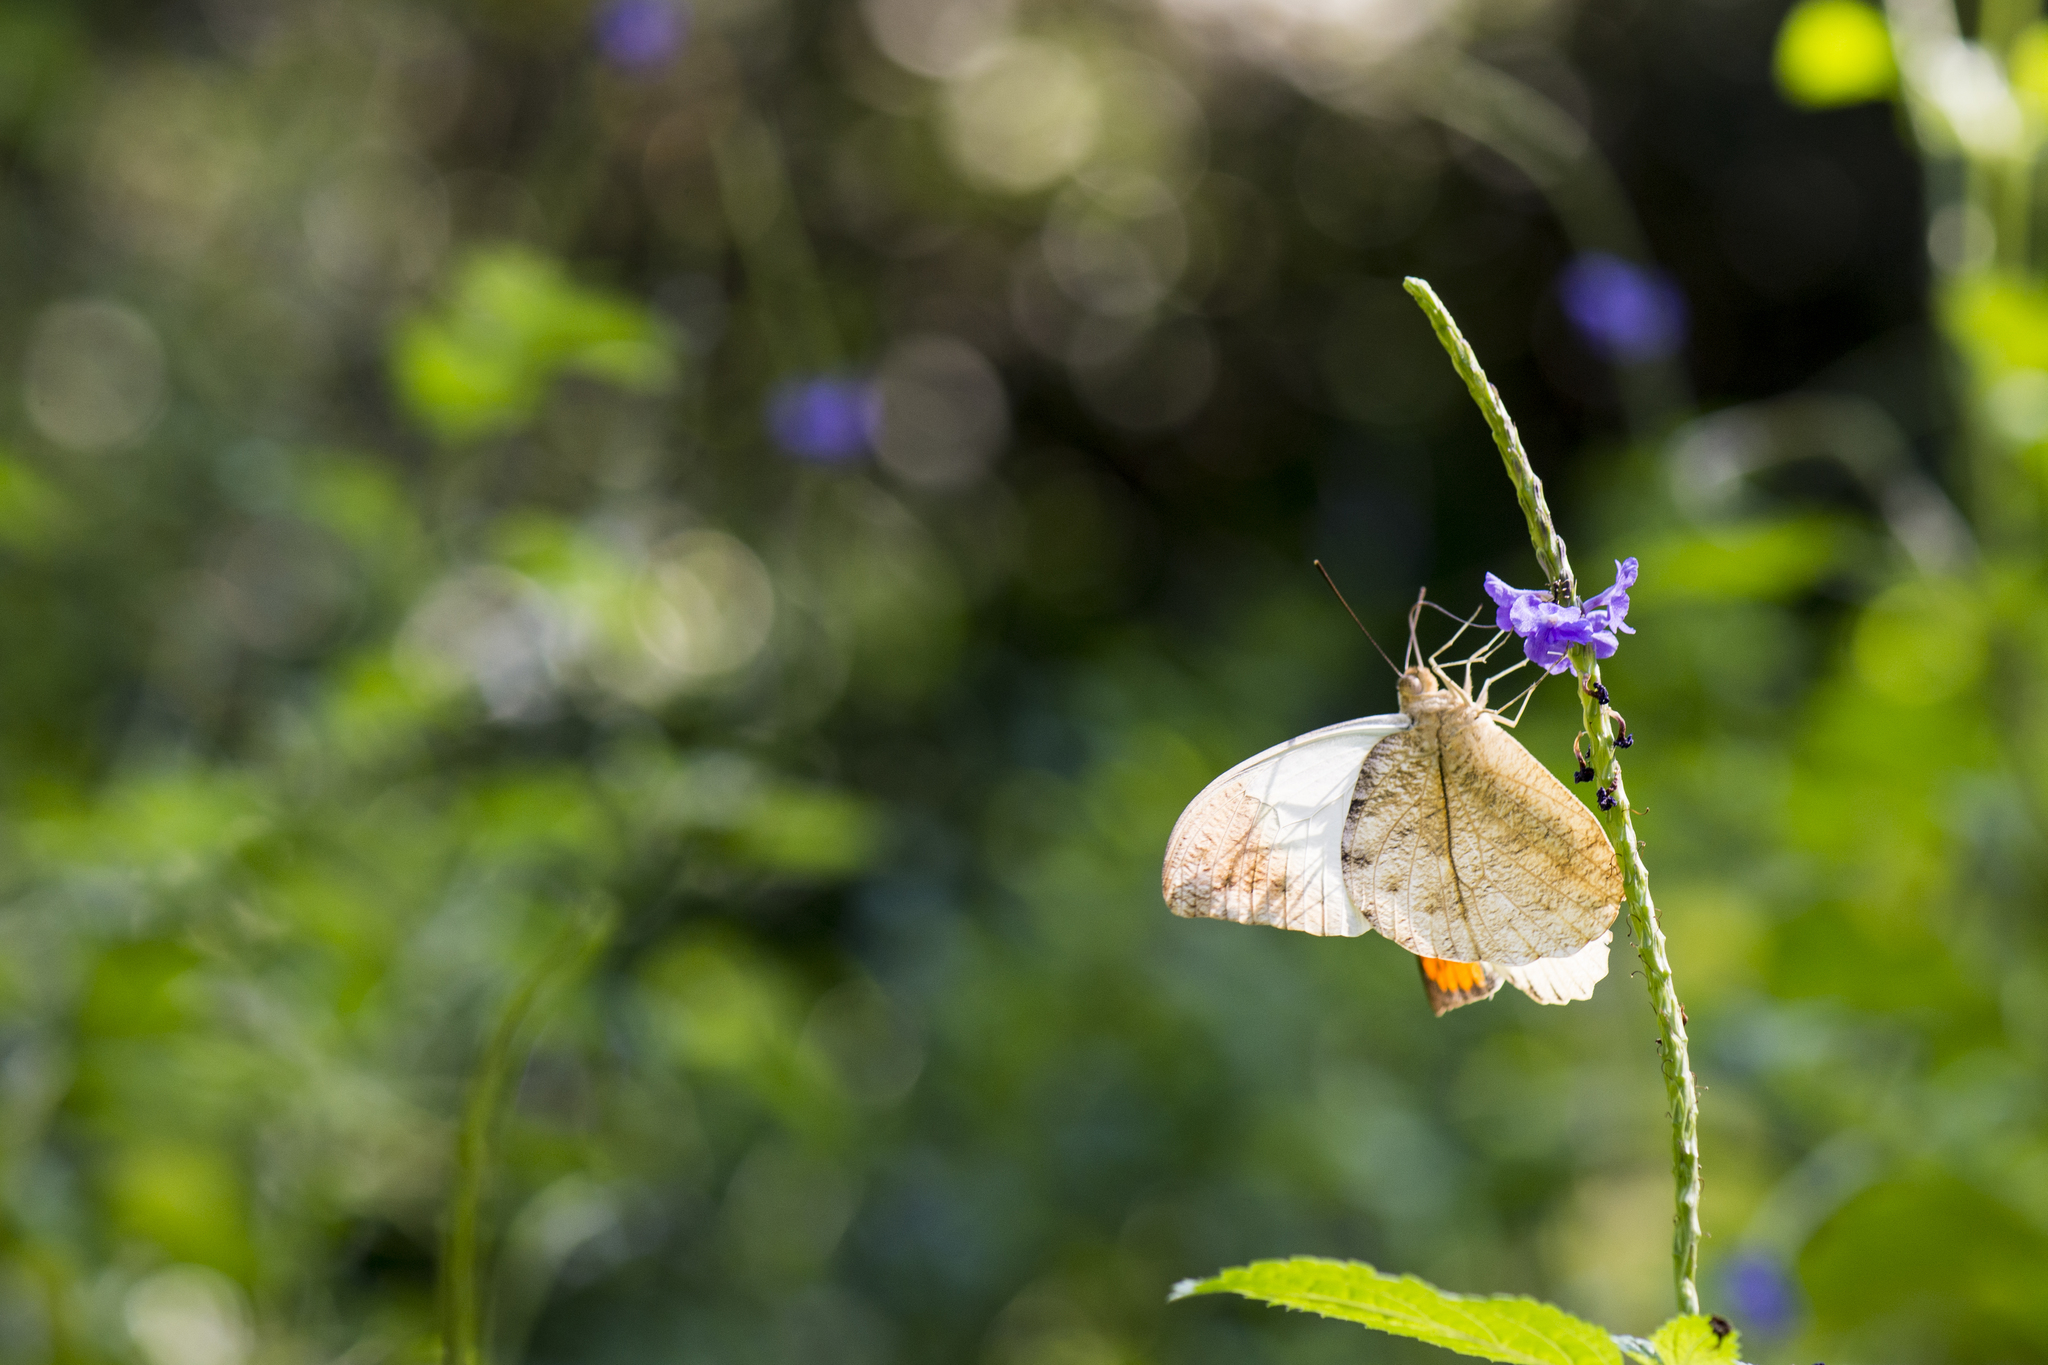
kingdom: Animalia
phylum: Arthropoda
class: Insecta
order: Lepidoptera
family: Pieridae
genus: Hebomoia
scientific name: Hebomoia glaucippe
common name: Great orange tip
